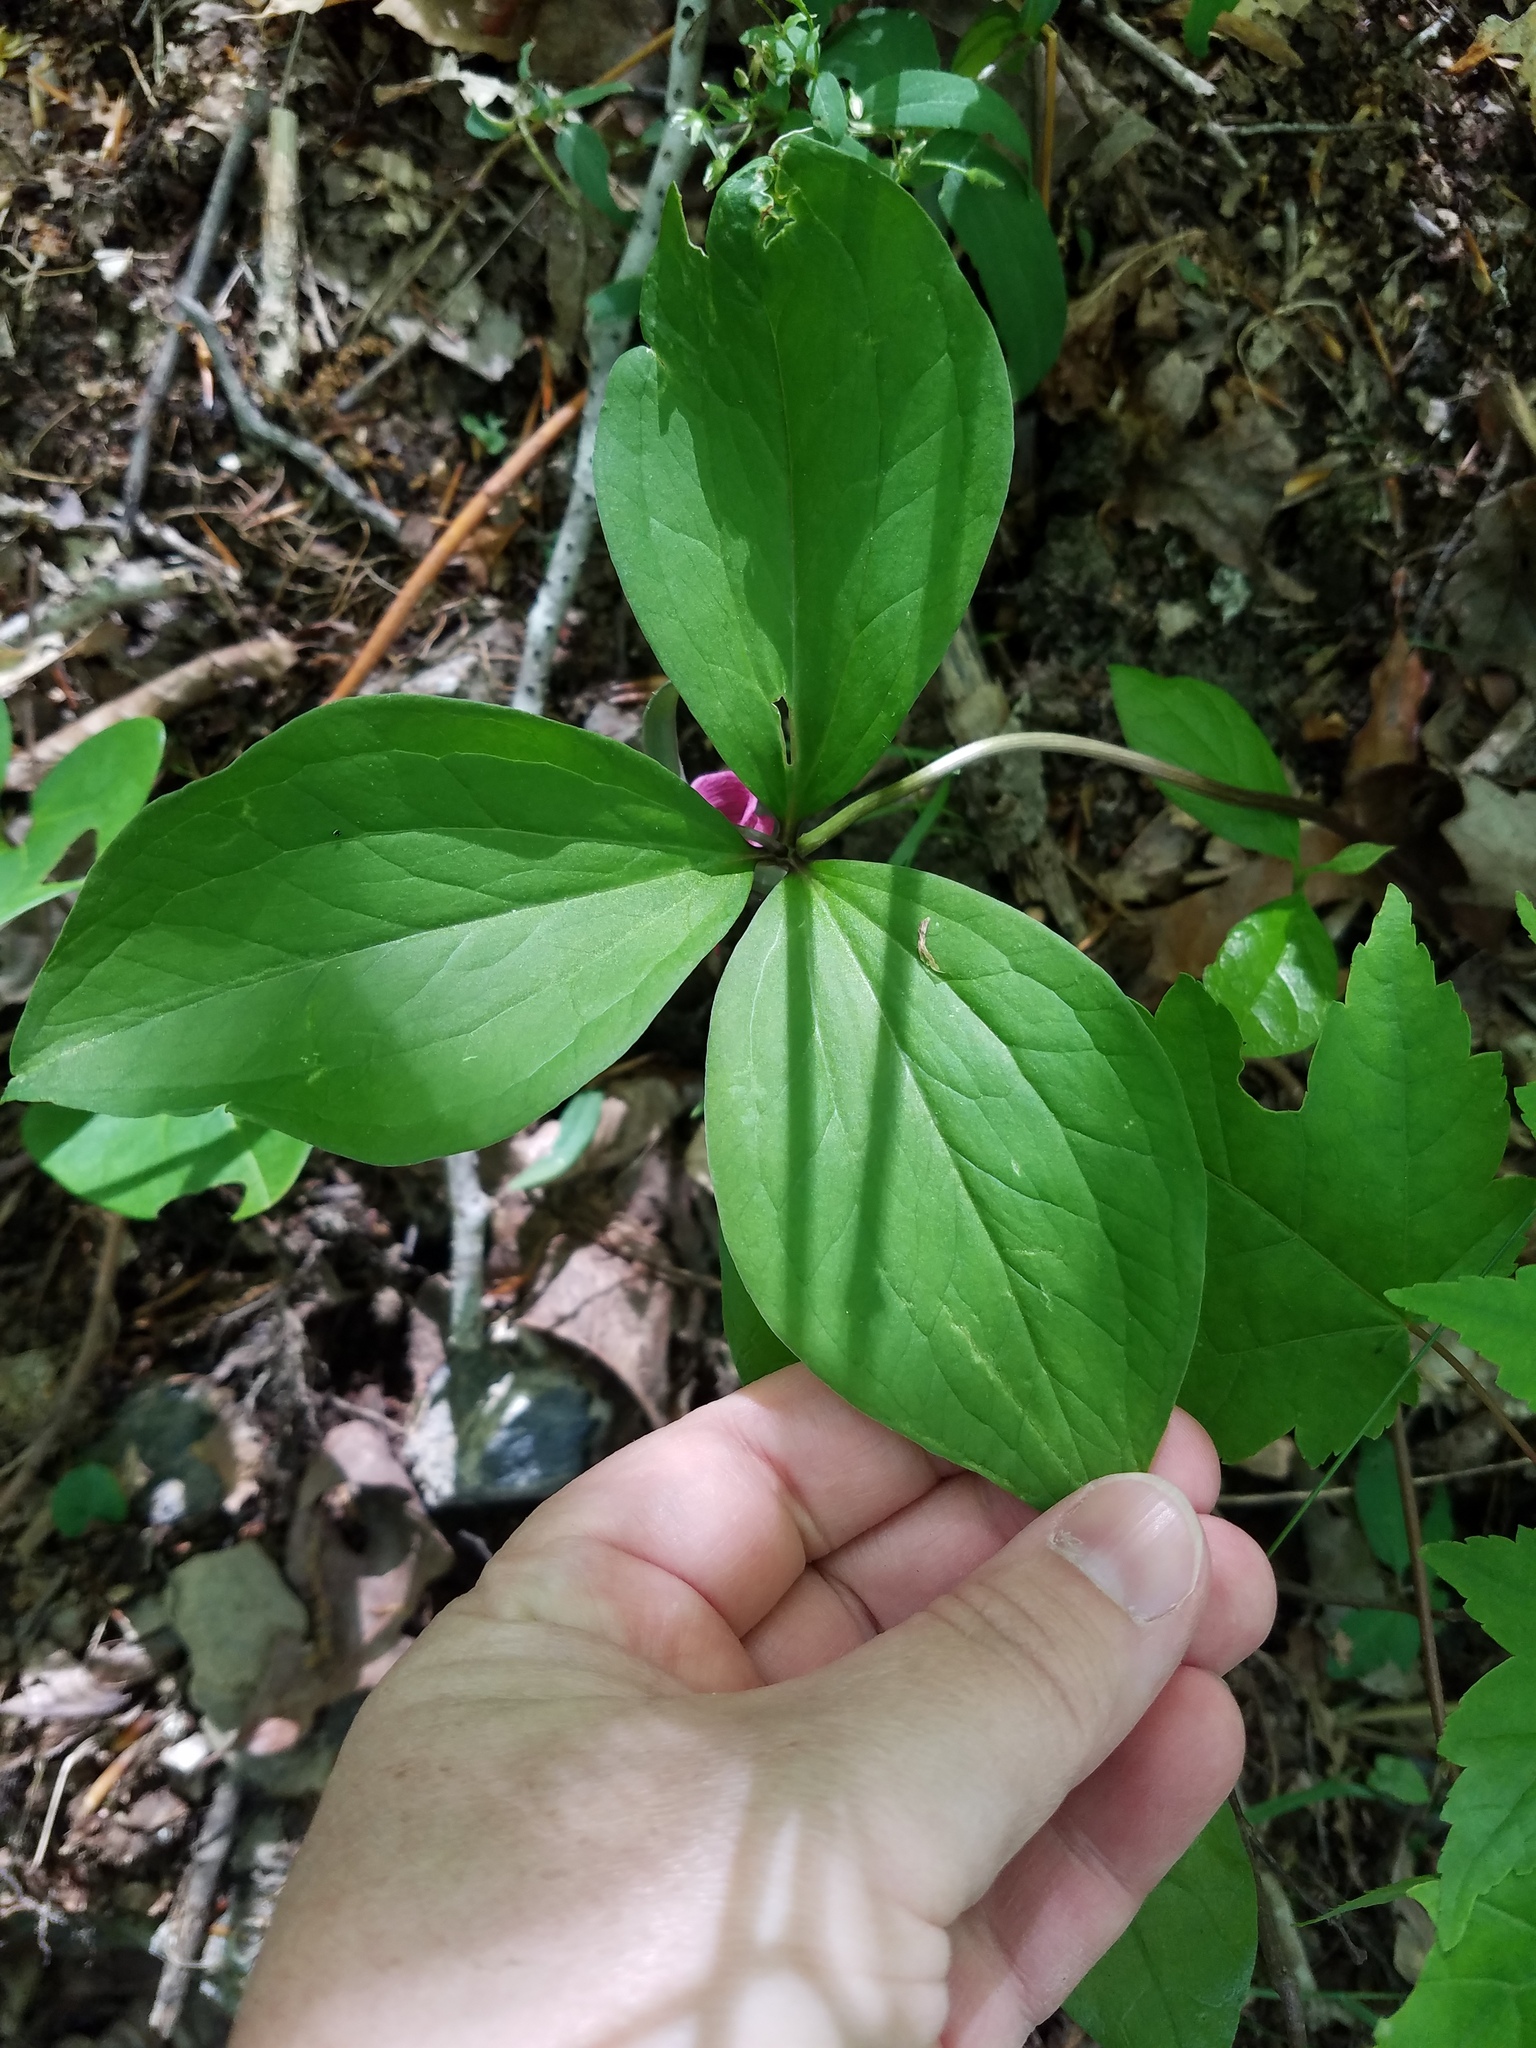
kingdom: Plantae
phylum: Tracheophyta
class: Liliopsida
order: Liliales
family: Melanthiaceae
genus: Trillium
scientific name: Trillium catesbaei
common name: Bashful trillium
